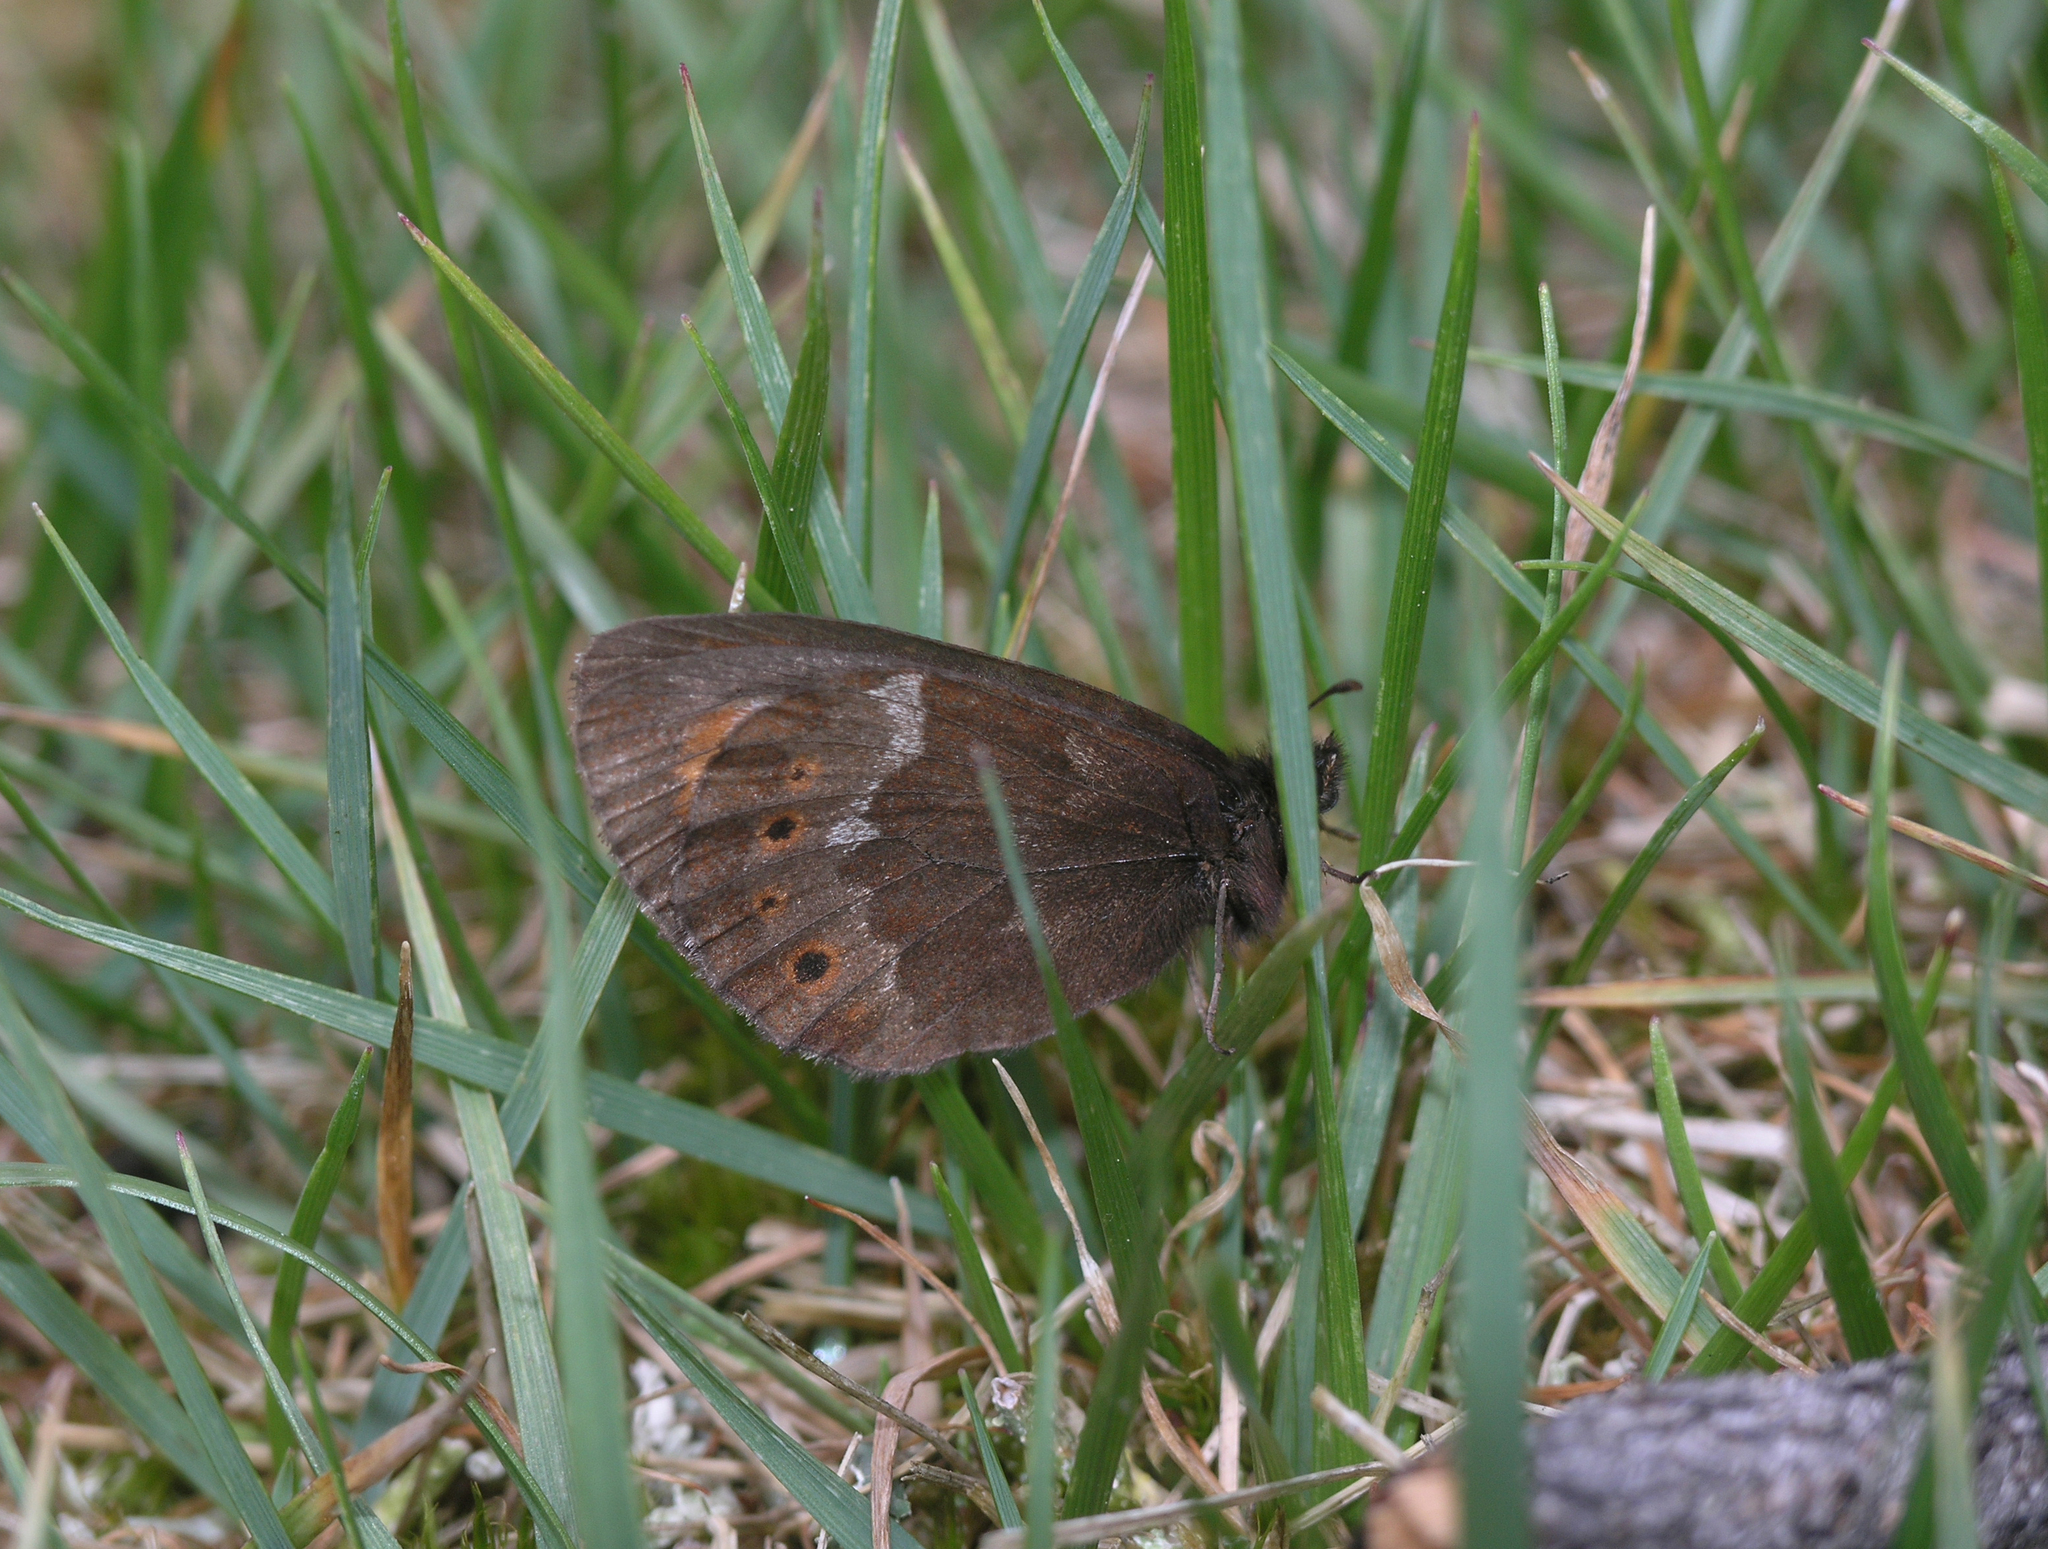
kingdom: Animalia
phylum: Arthropoda
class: Insecta
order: Lepidoptera
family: Nymphalidae
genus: Erebia
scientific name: Erebia jeniseiensis
